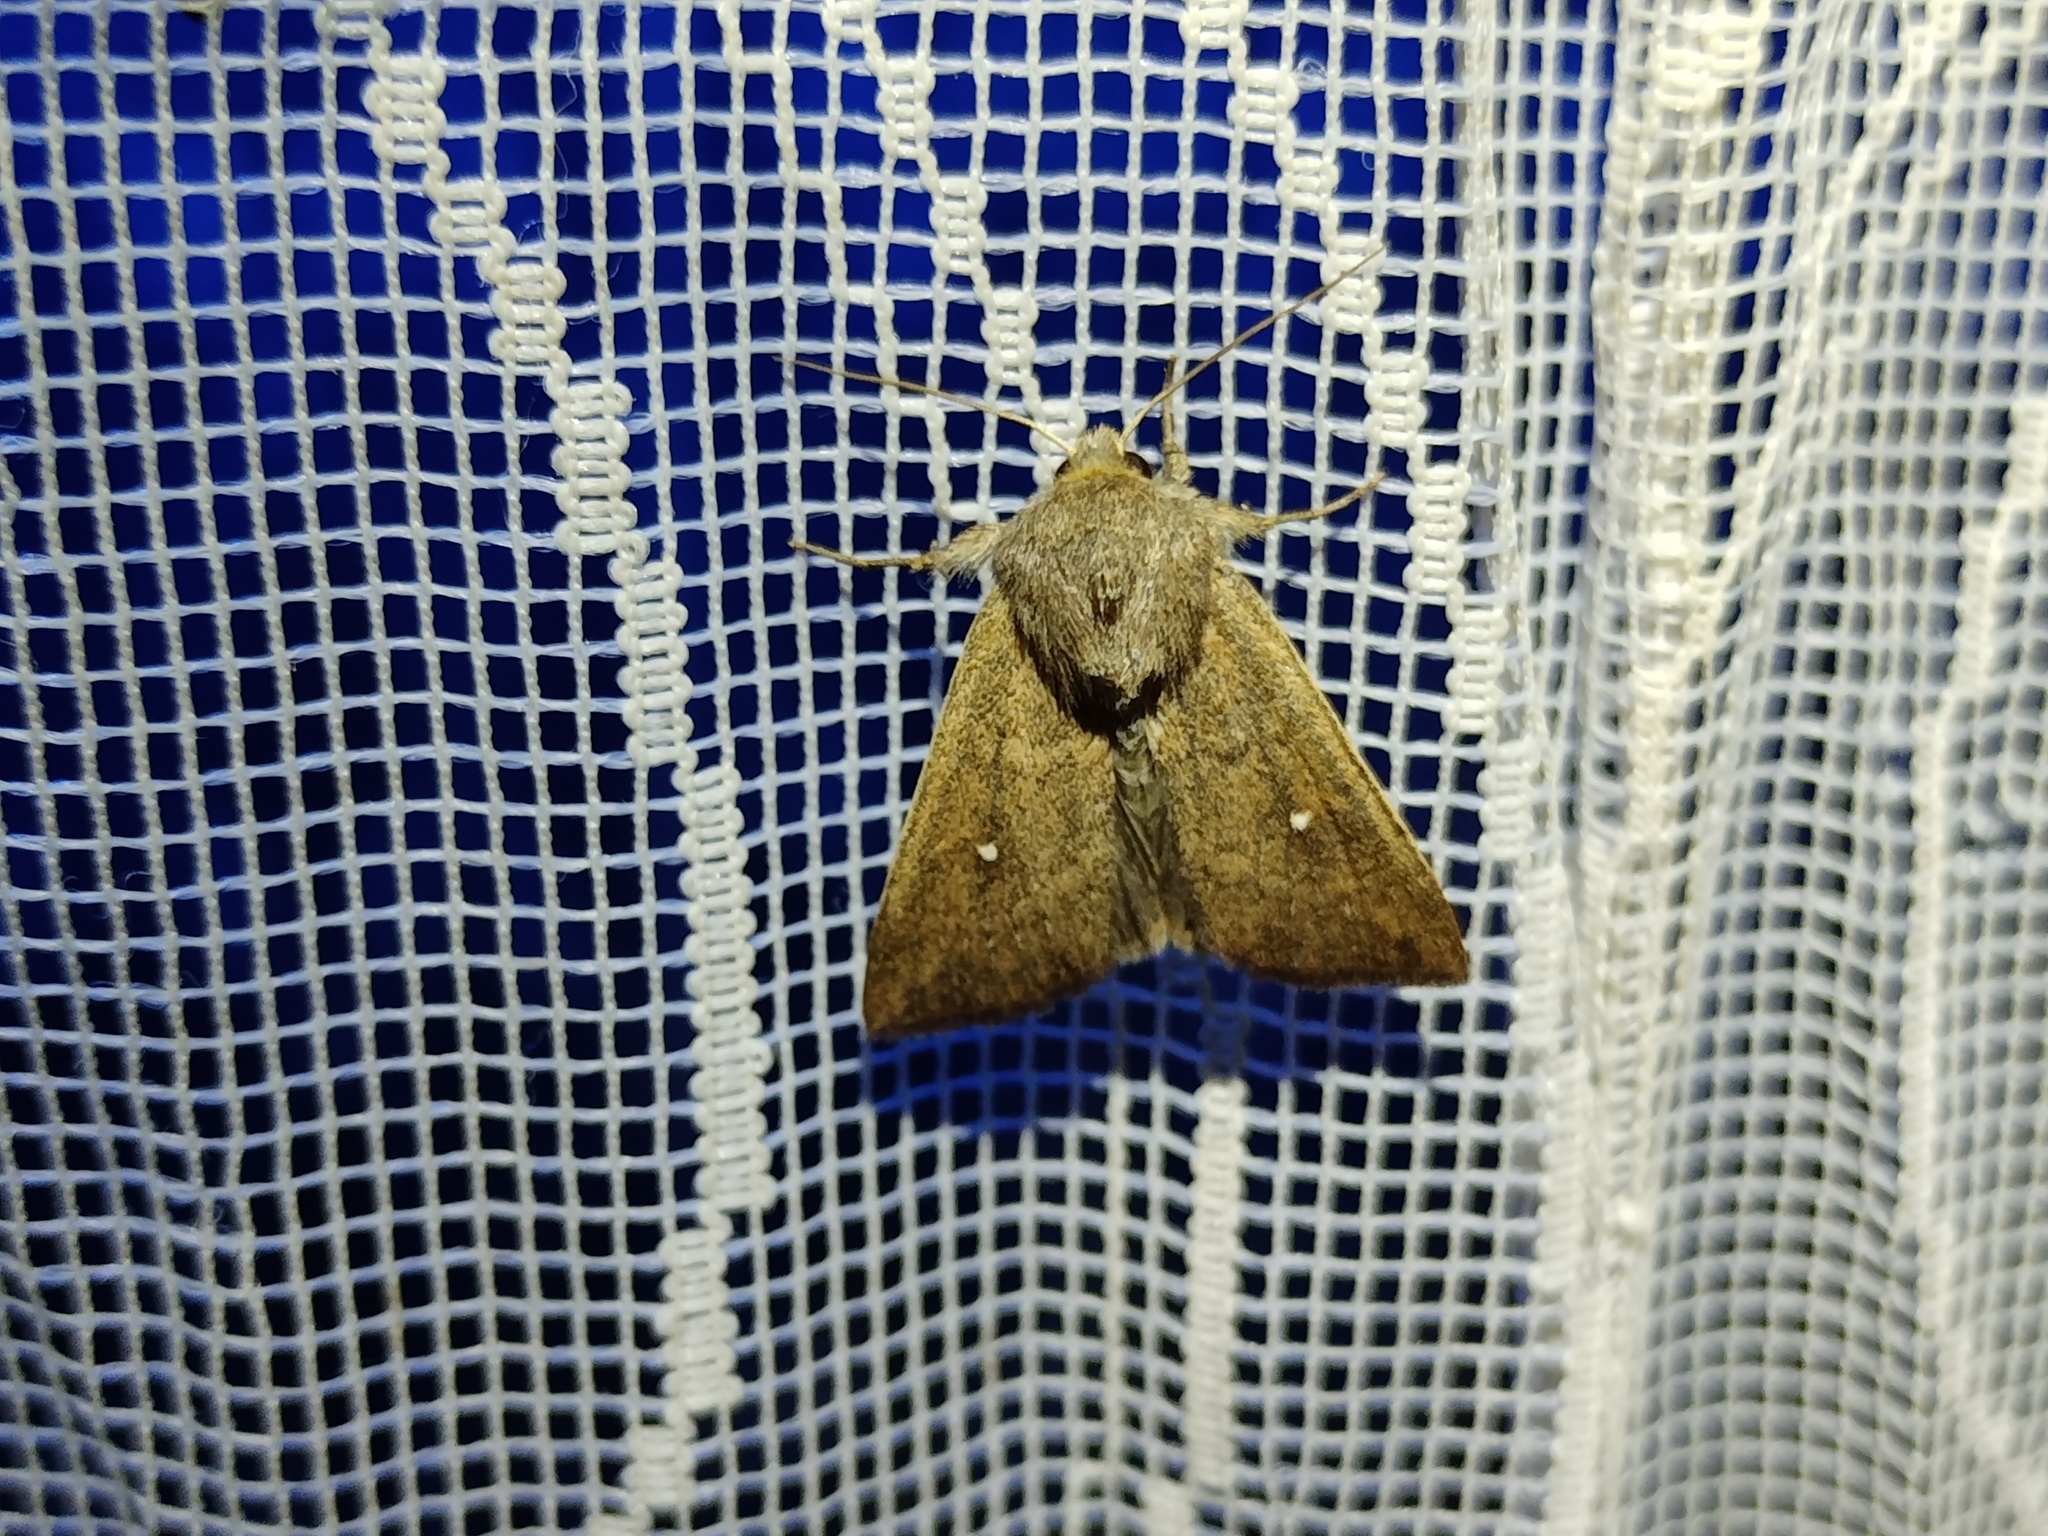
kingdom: Animalia
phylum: Arthropoda
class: Insecta
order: Lepidoptera
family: Noctuidae
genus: Mythimna
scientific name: Mythimna albipuncta
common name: White-point
